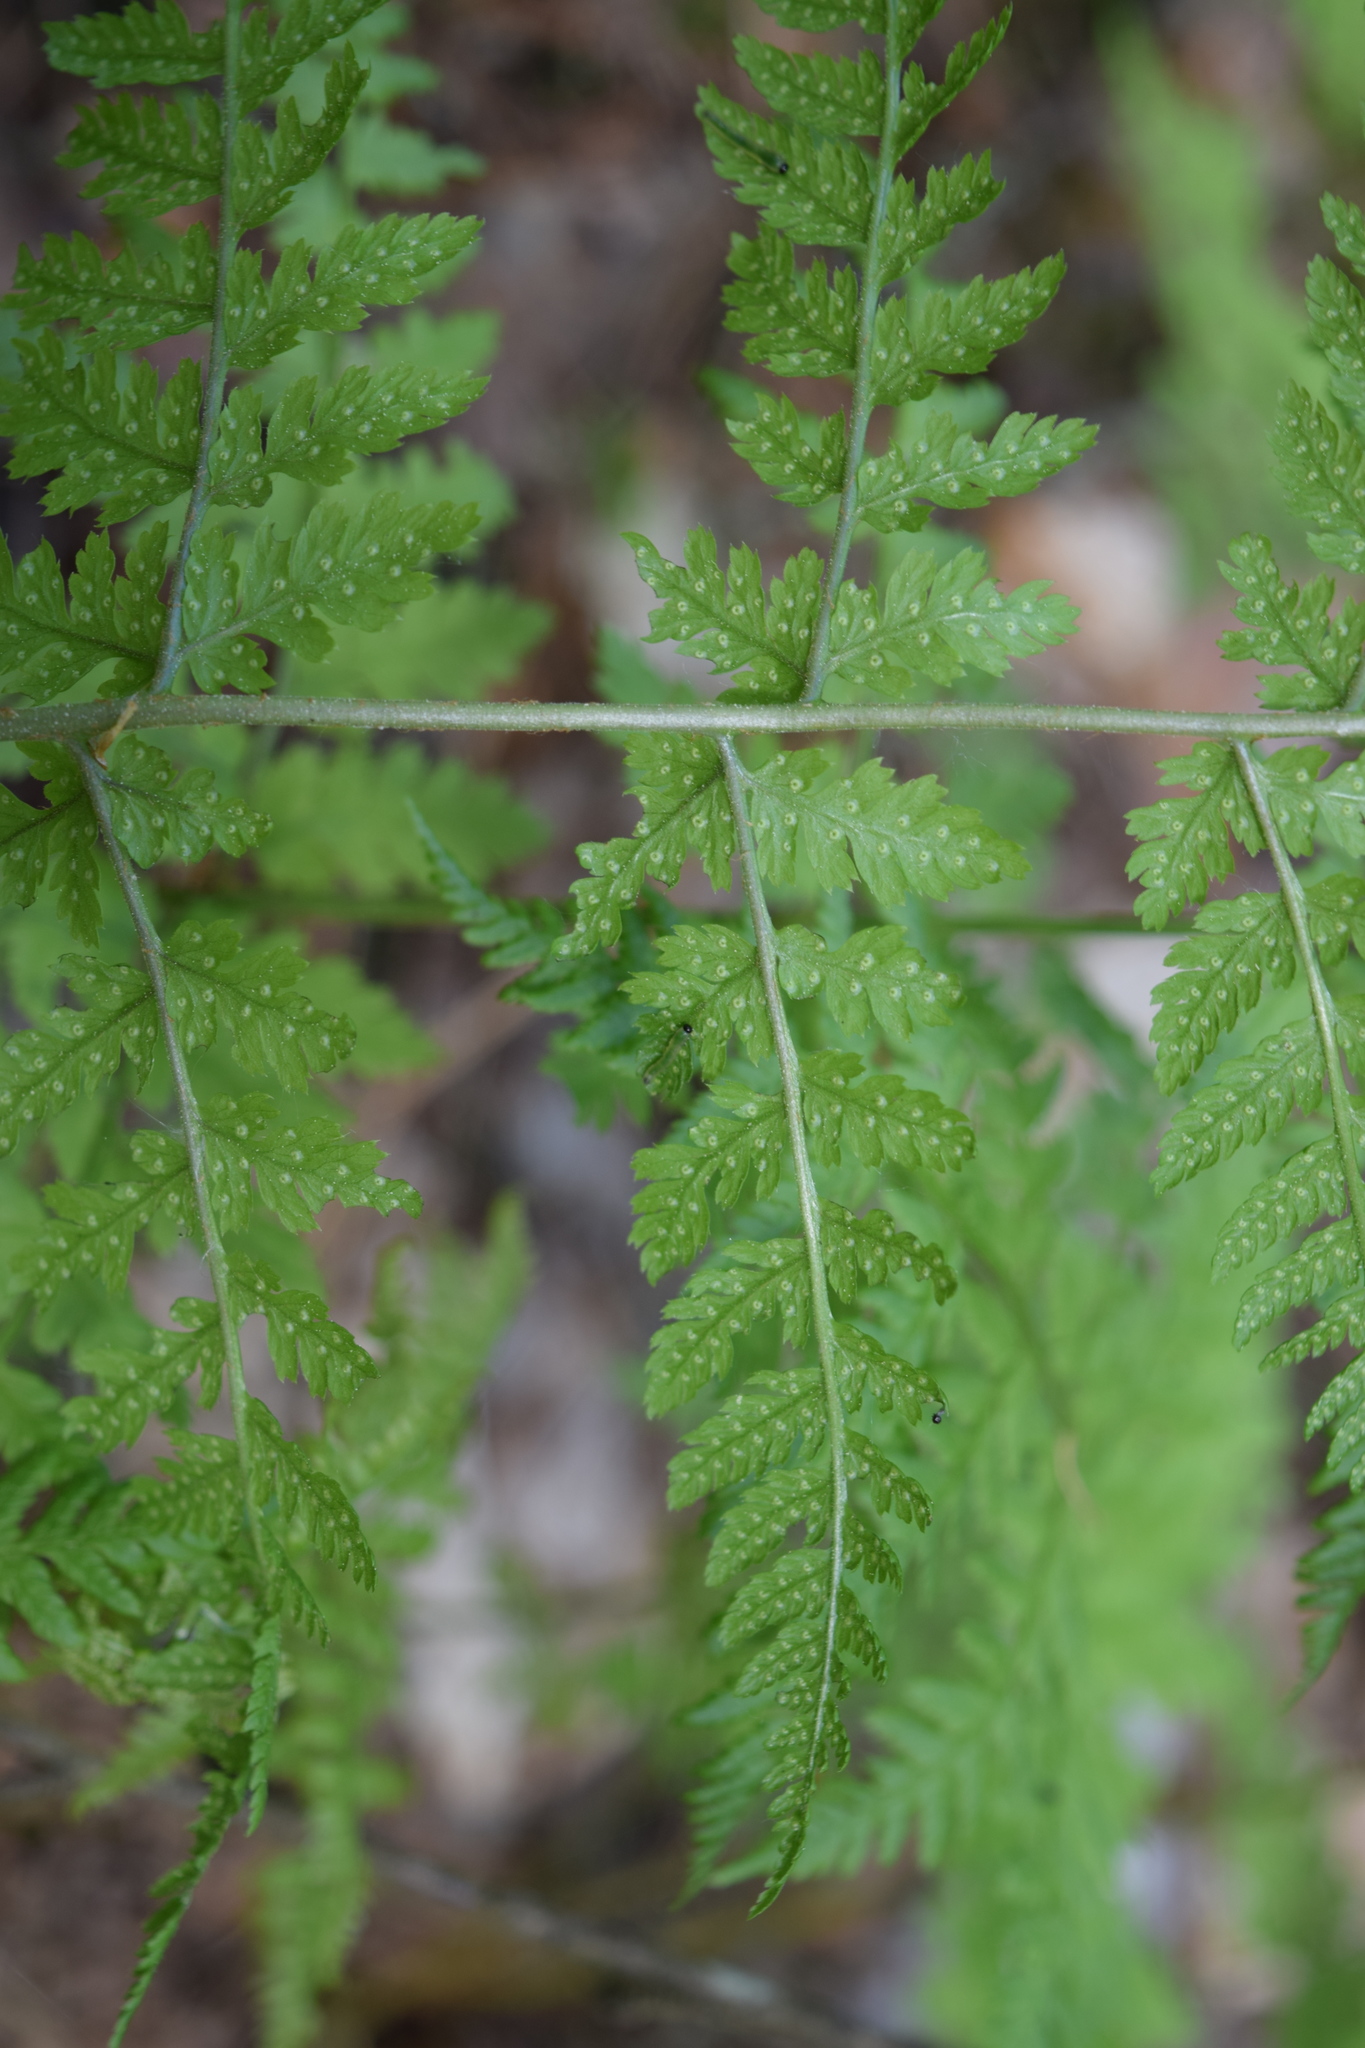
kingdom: Plantae
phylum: Tracheophyta
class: Polypodiopsida
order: Polypodiales
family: Dryopteridaceae
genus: Dryopteris
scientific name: Dryopteris carthusiana
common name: Narrow buckler-fern
